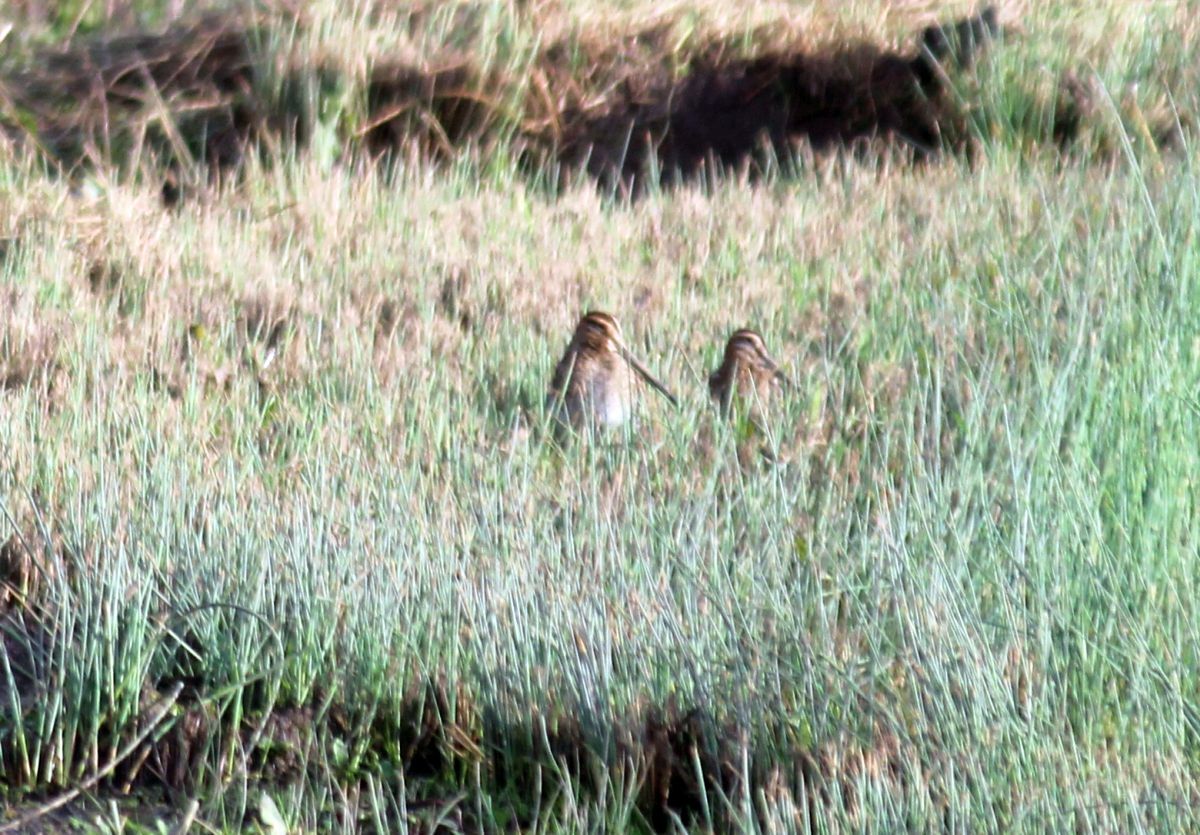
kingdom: Animalia
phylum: Chordata
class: Aves
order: Charadriiformes
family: Scolopacidae
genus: Gallinago
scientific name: Gallinago gallinago
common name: Common snipe
